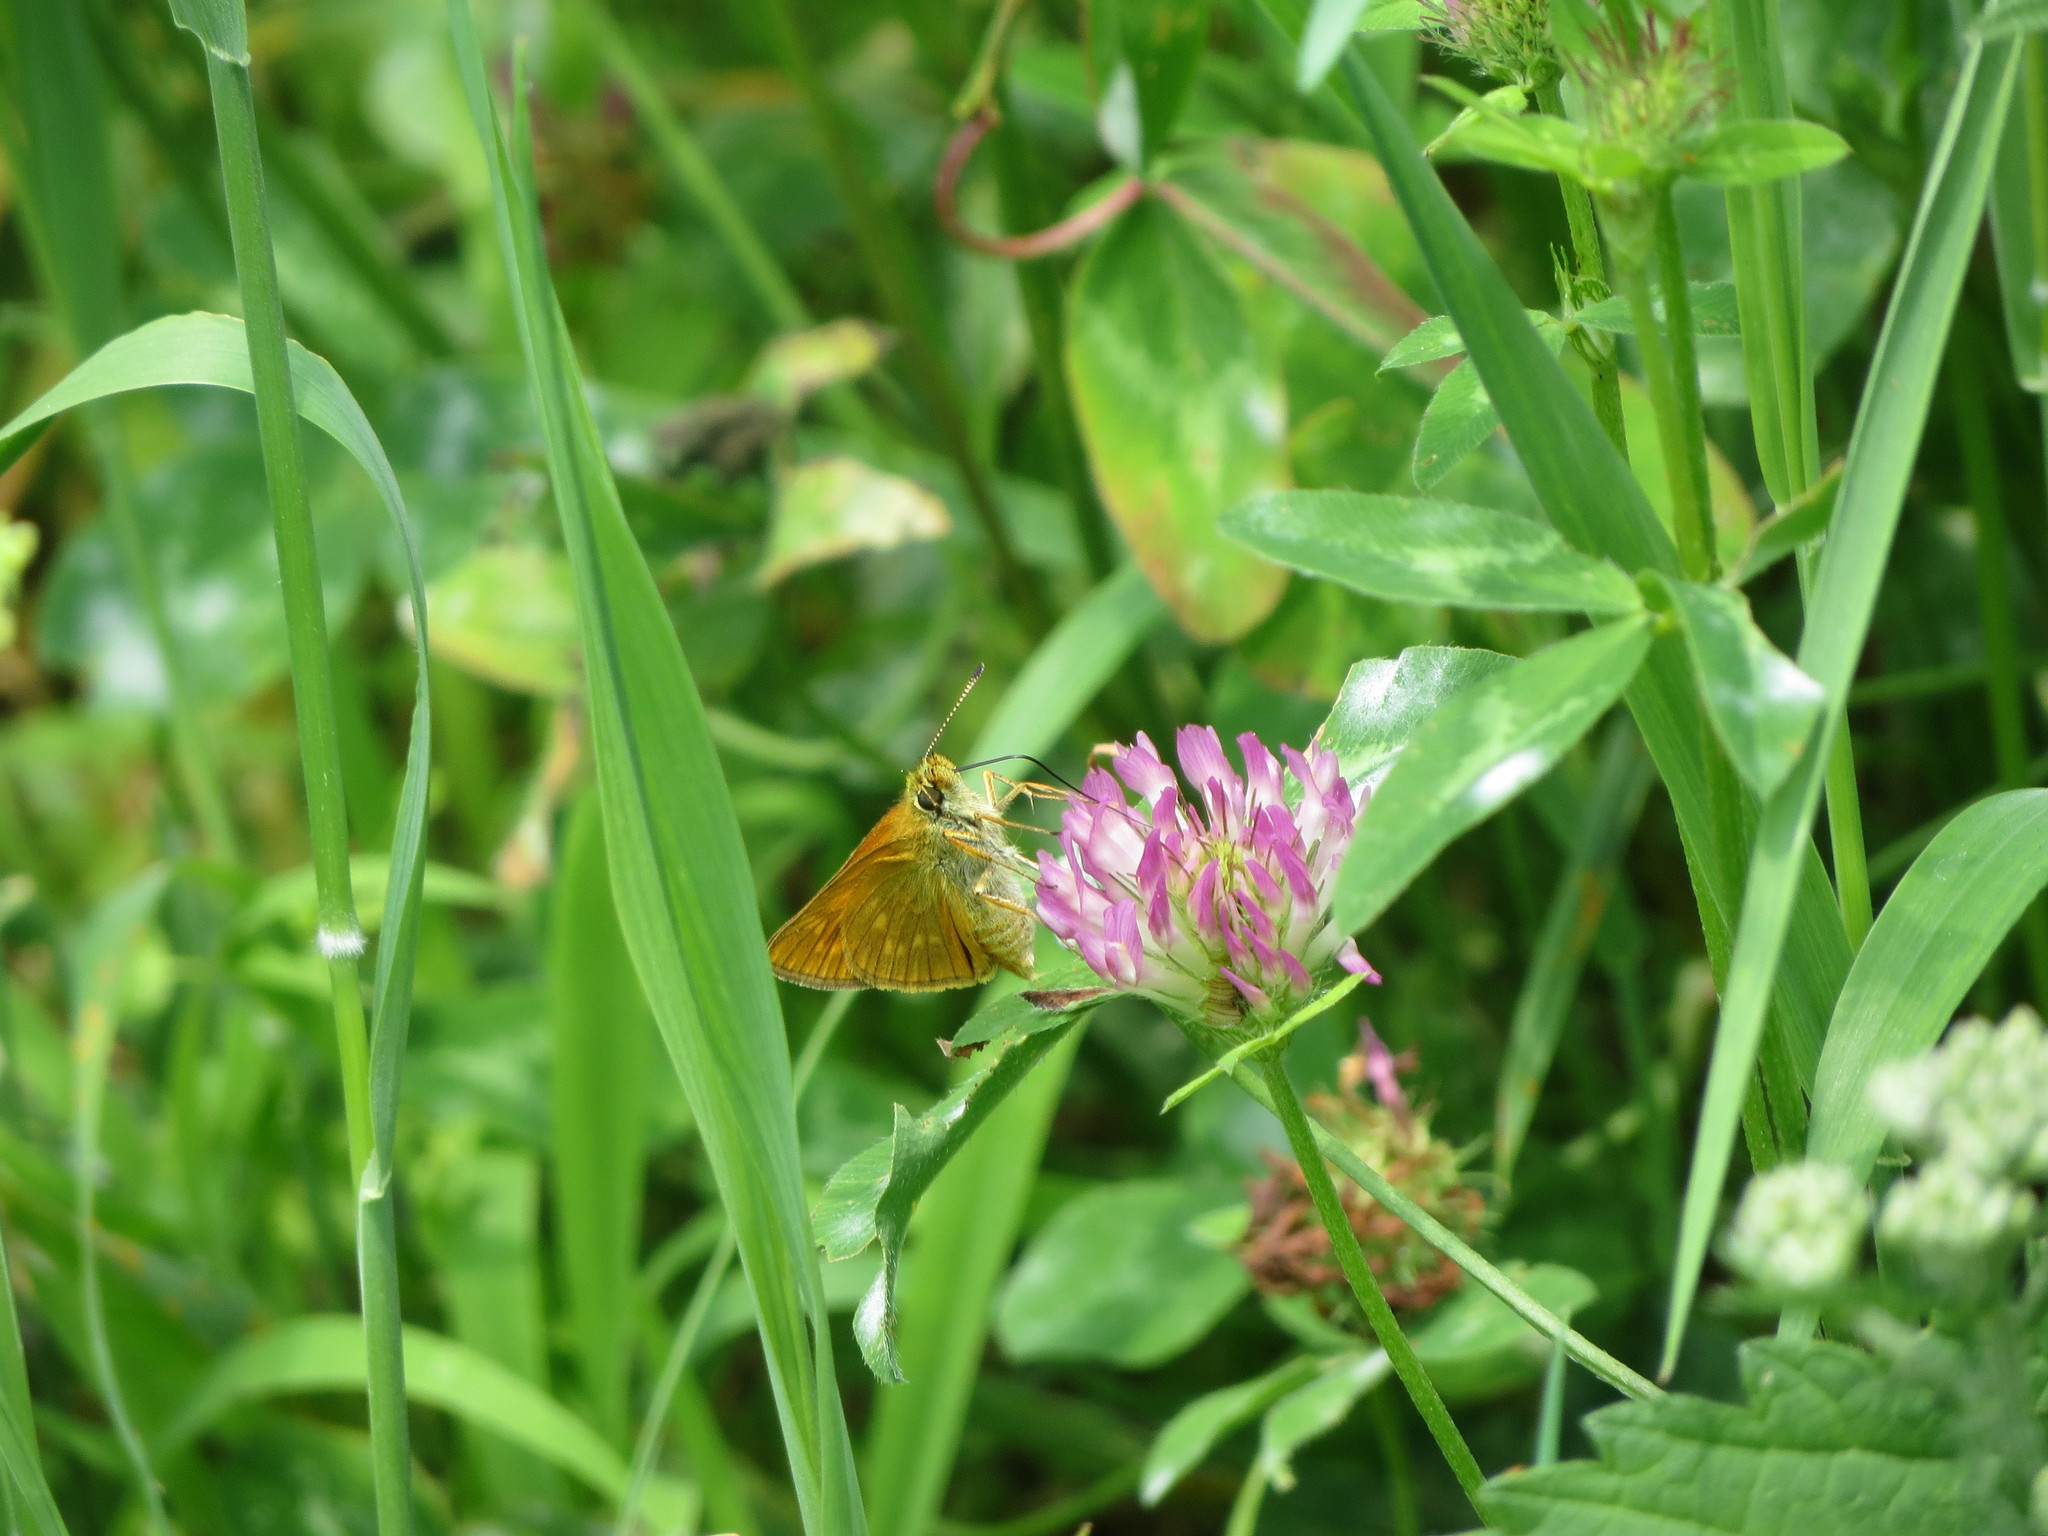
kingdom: Animalia
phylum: Arthropoda
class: Insecta
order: Lepidoptera
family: Hesperiidae
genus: Ochlodes
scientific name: Ochlodes venata
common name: Large skipper
